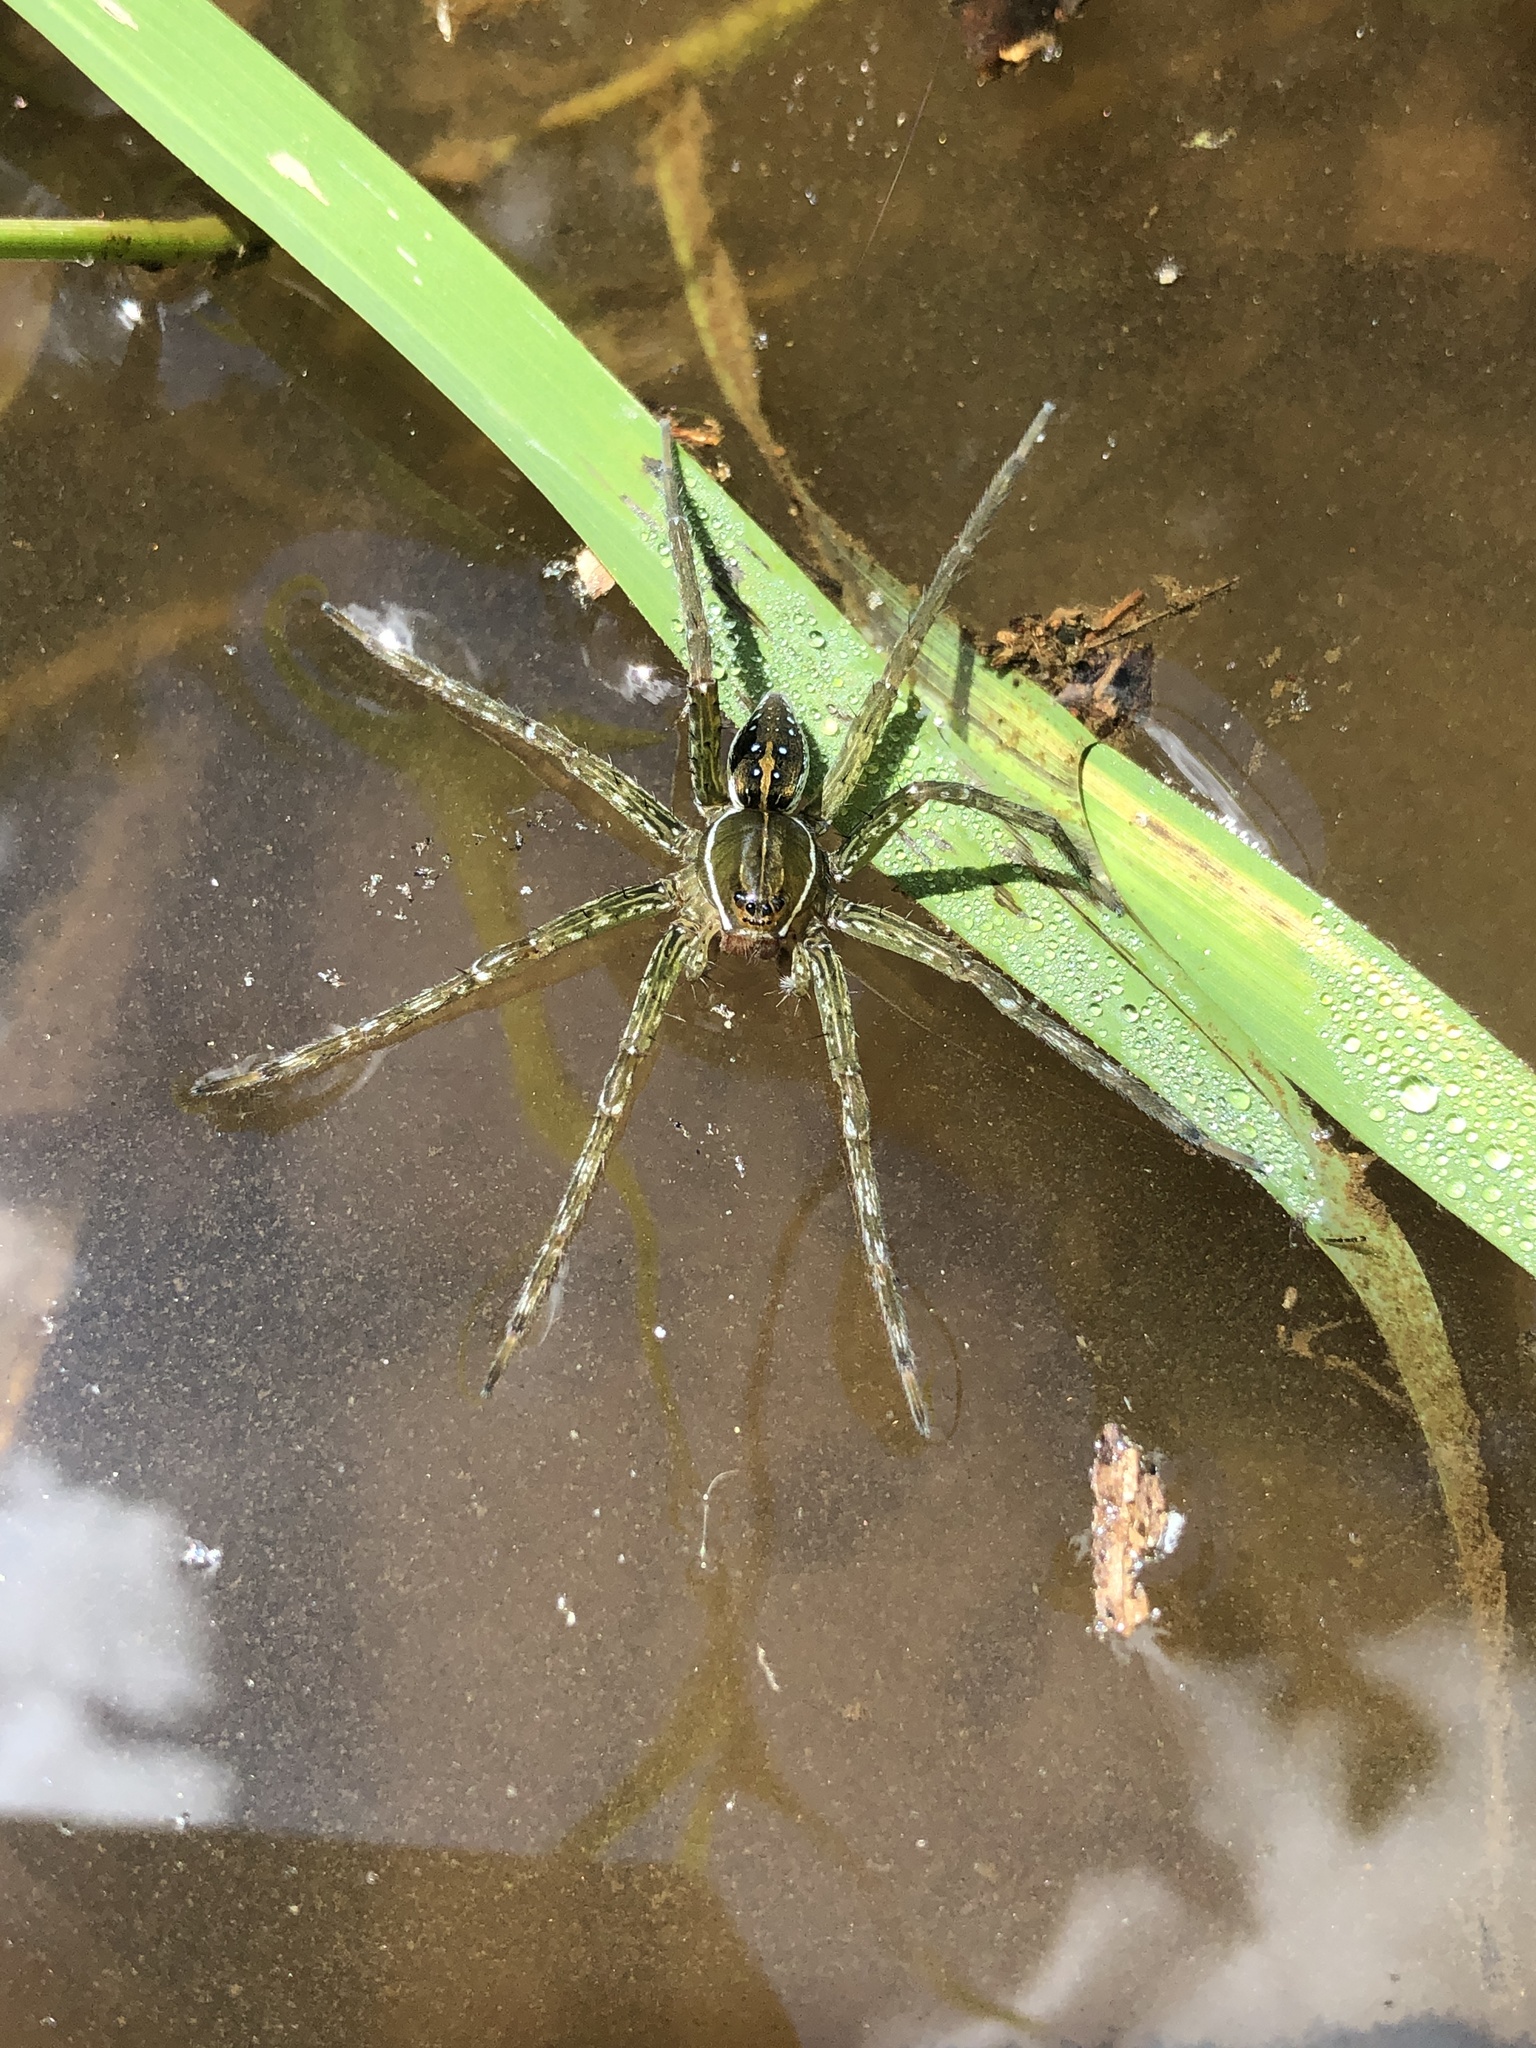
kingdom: Animalia
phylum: Arthropoda
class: Arachnida
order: Araneae
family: Pisauridae
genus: Dolomedes
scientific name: Dolomedes triton
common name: Six-spotted fishing spider
